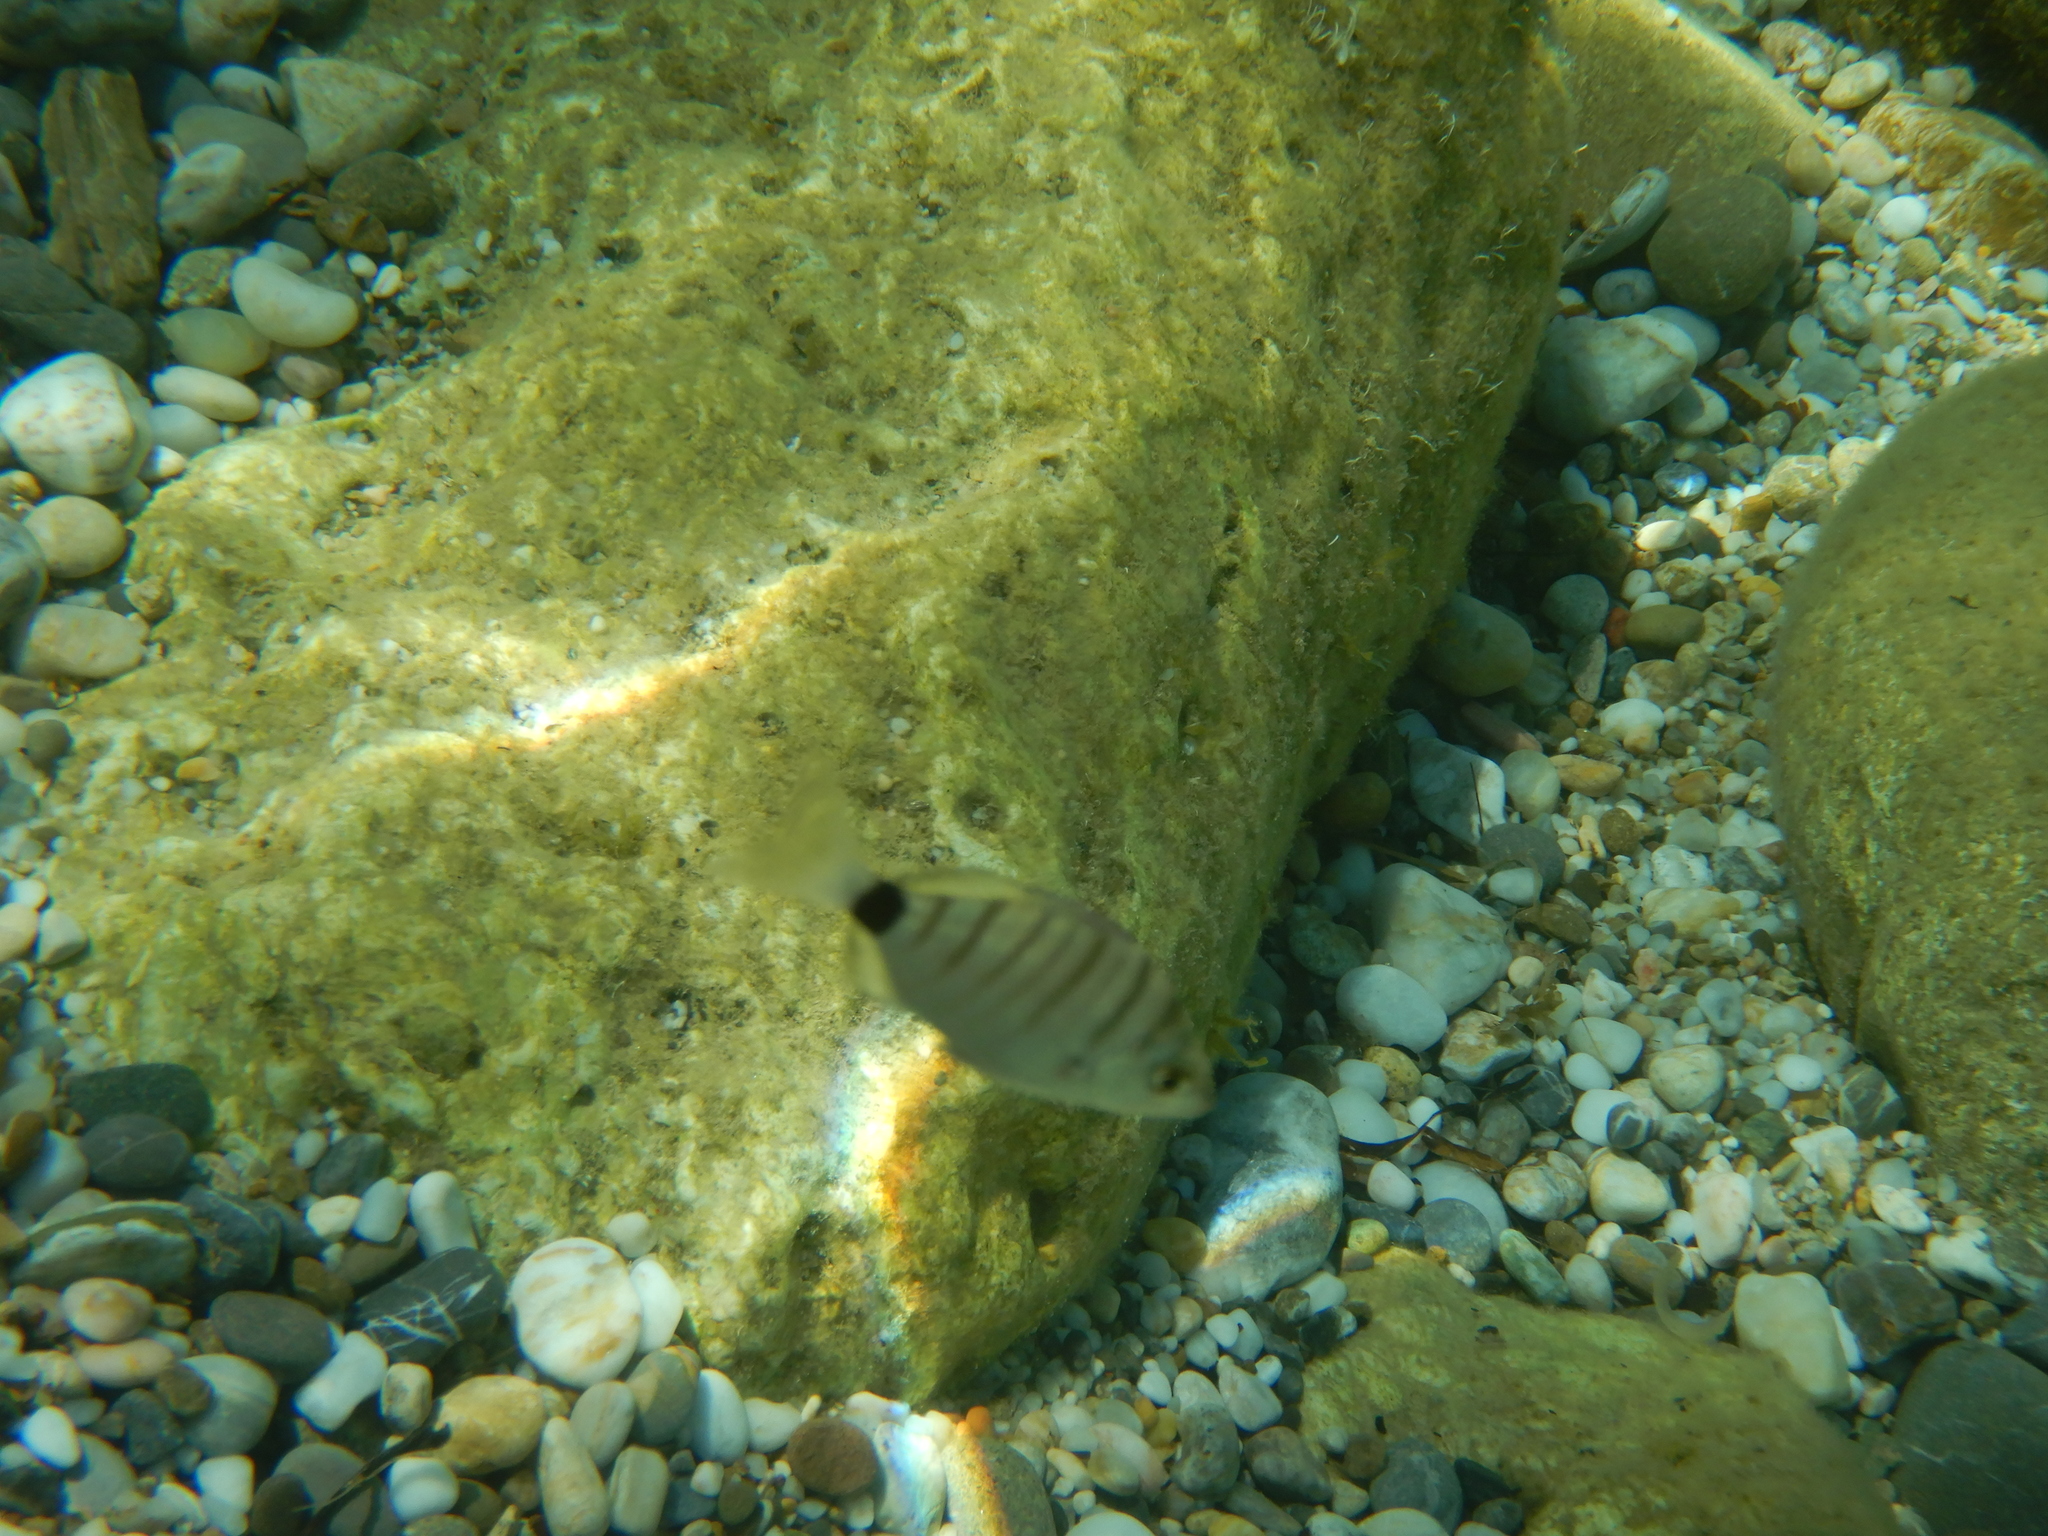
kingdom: Animalia
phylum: Chordata
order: Perciformes
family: Sparidae
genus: Diplodus
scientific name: Diplodus puntazzo
